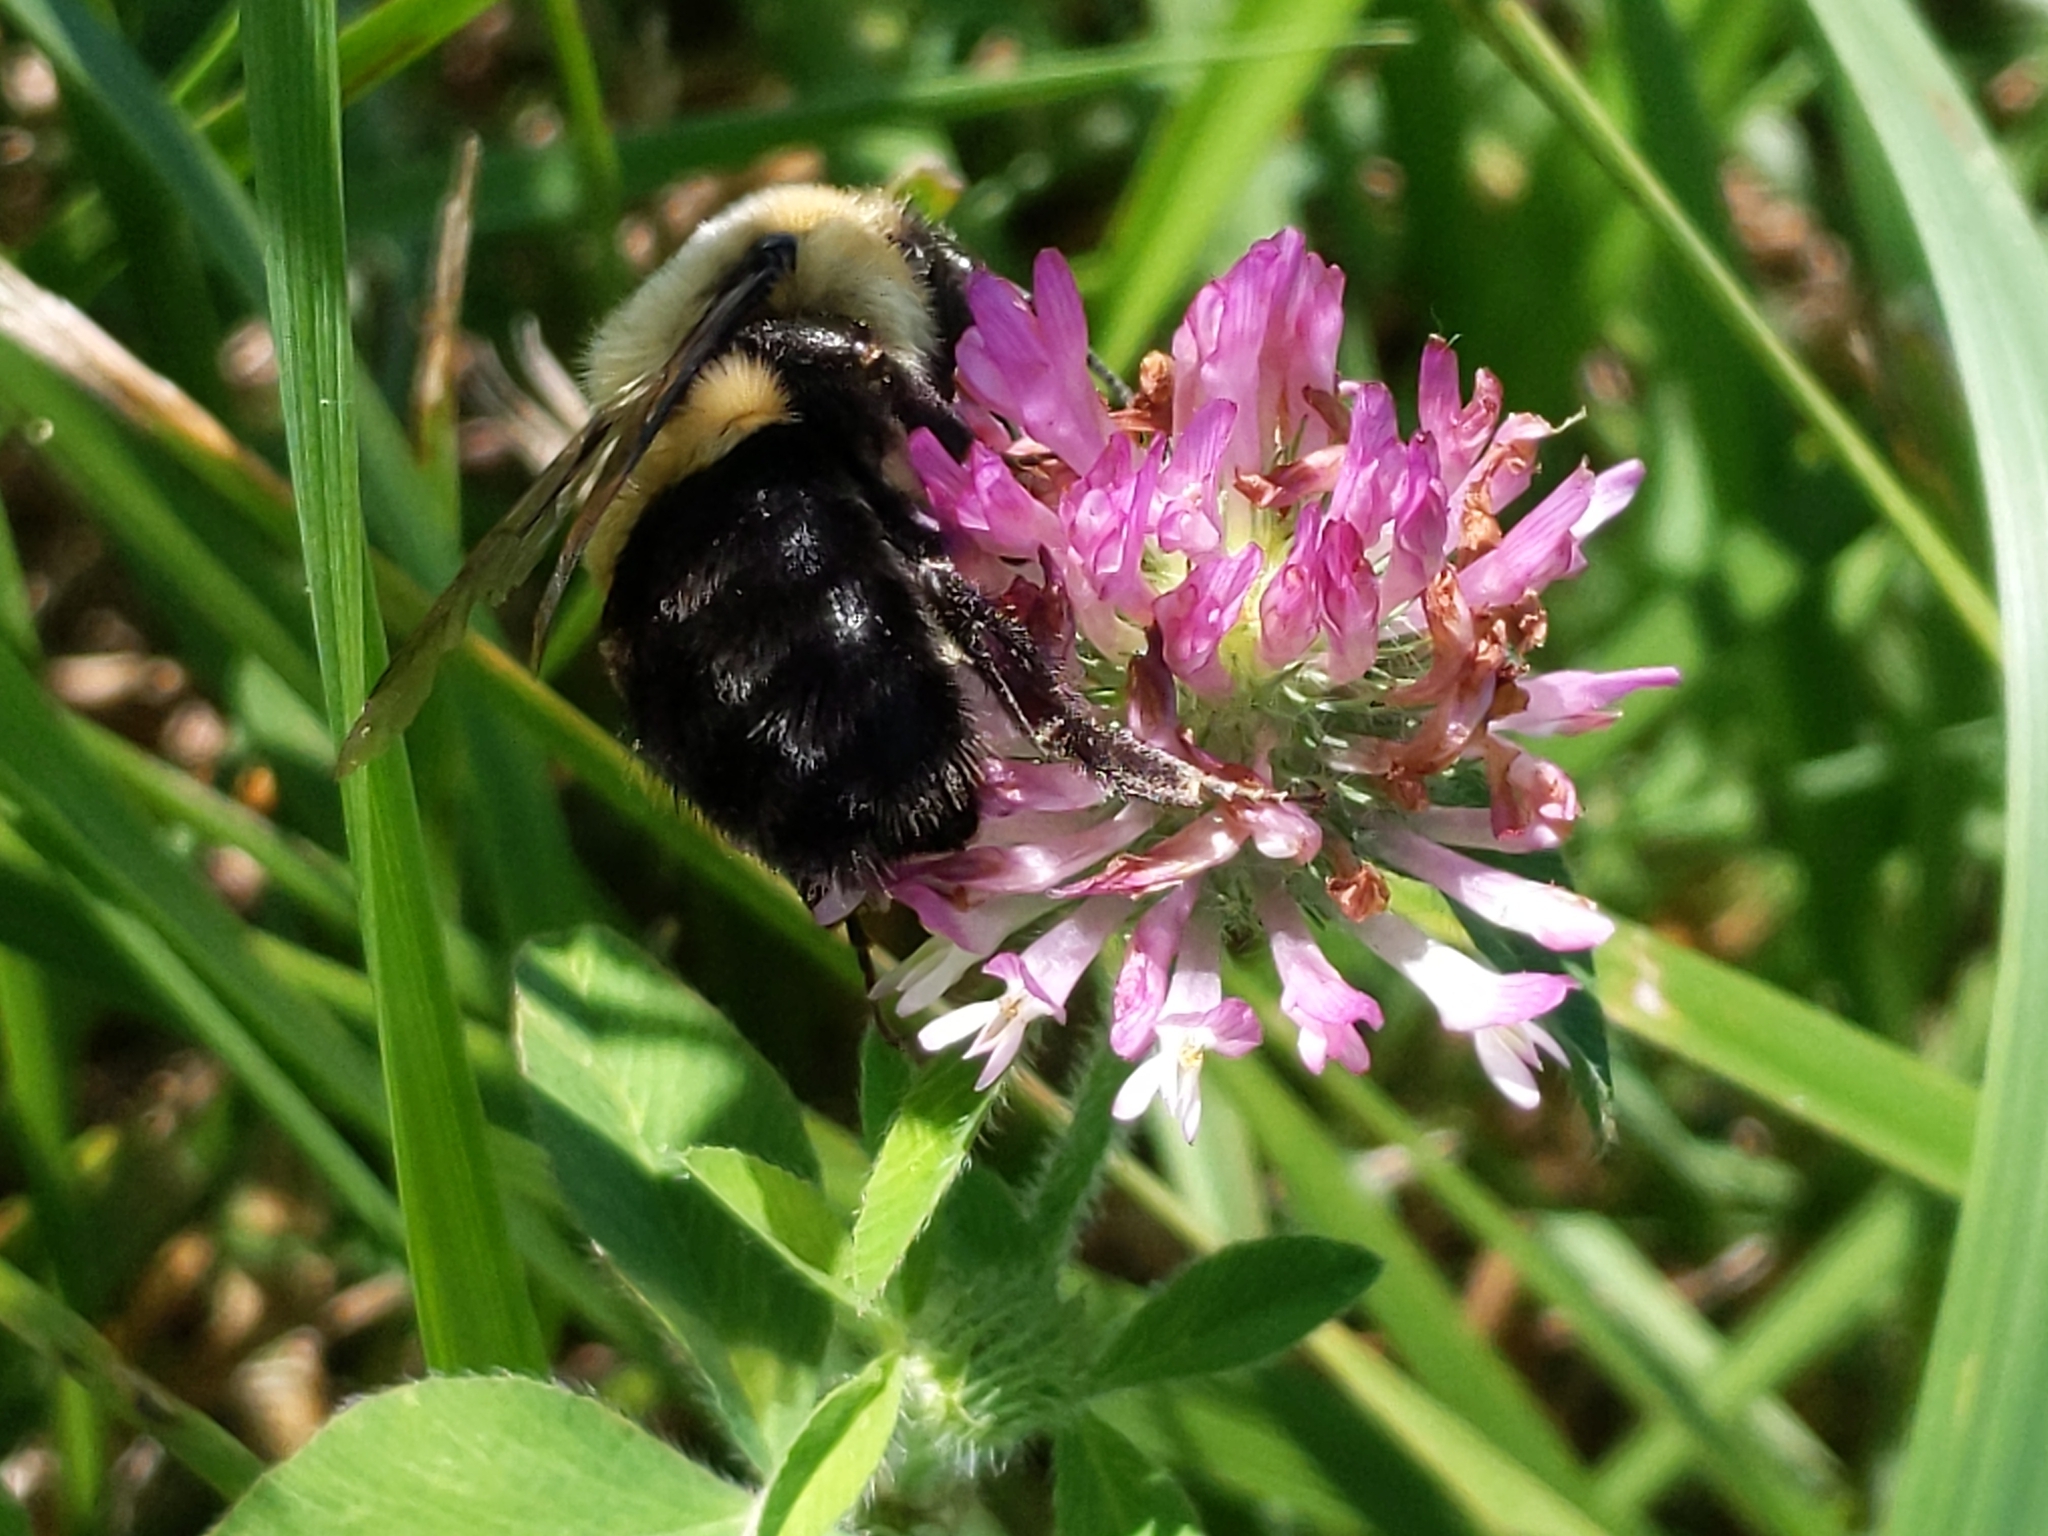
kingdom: Animalia
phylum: Arthropoda
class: Insecta
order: Hymenoptera
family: Apidae
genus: Bombus
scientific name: Bombus impatiens
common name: Common eastern bumble bee
